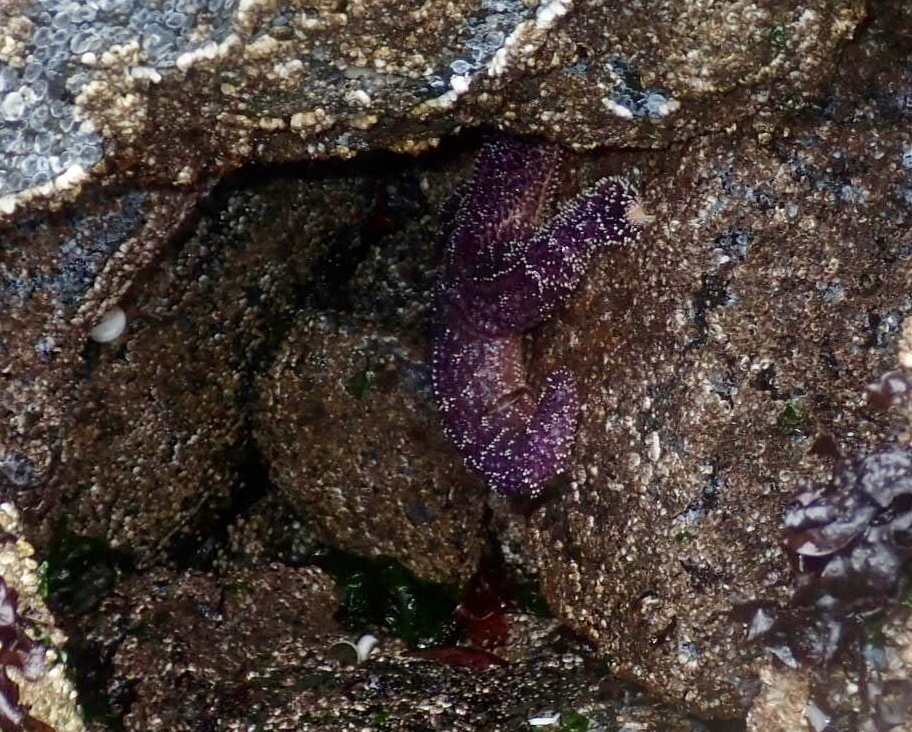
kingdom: Animalia
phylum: Echinodermata
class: Asteroidea
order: Forcipulatida
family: Asteriidae
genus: Pisaster
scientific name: Pisaster ochraceus
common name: Ochre stars
